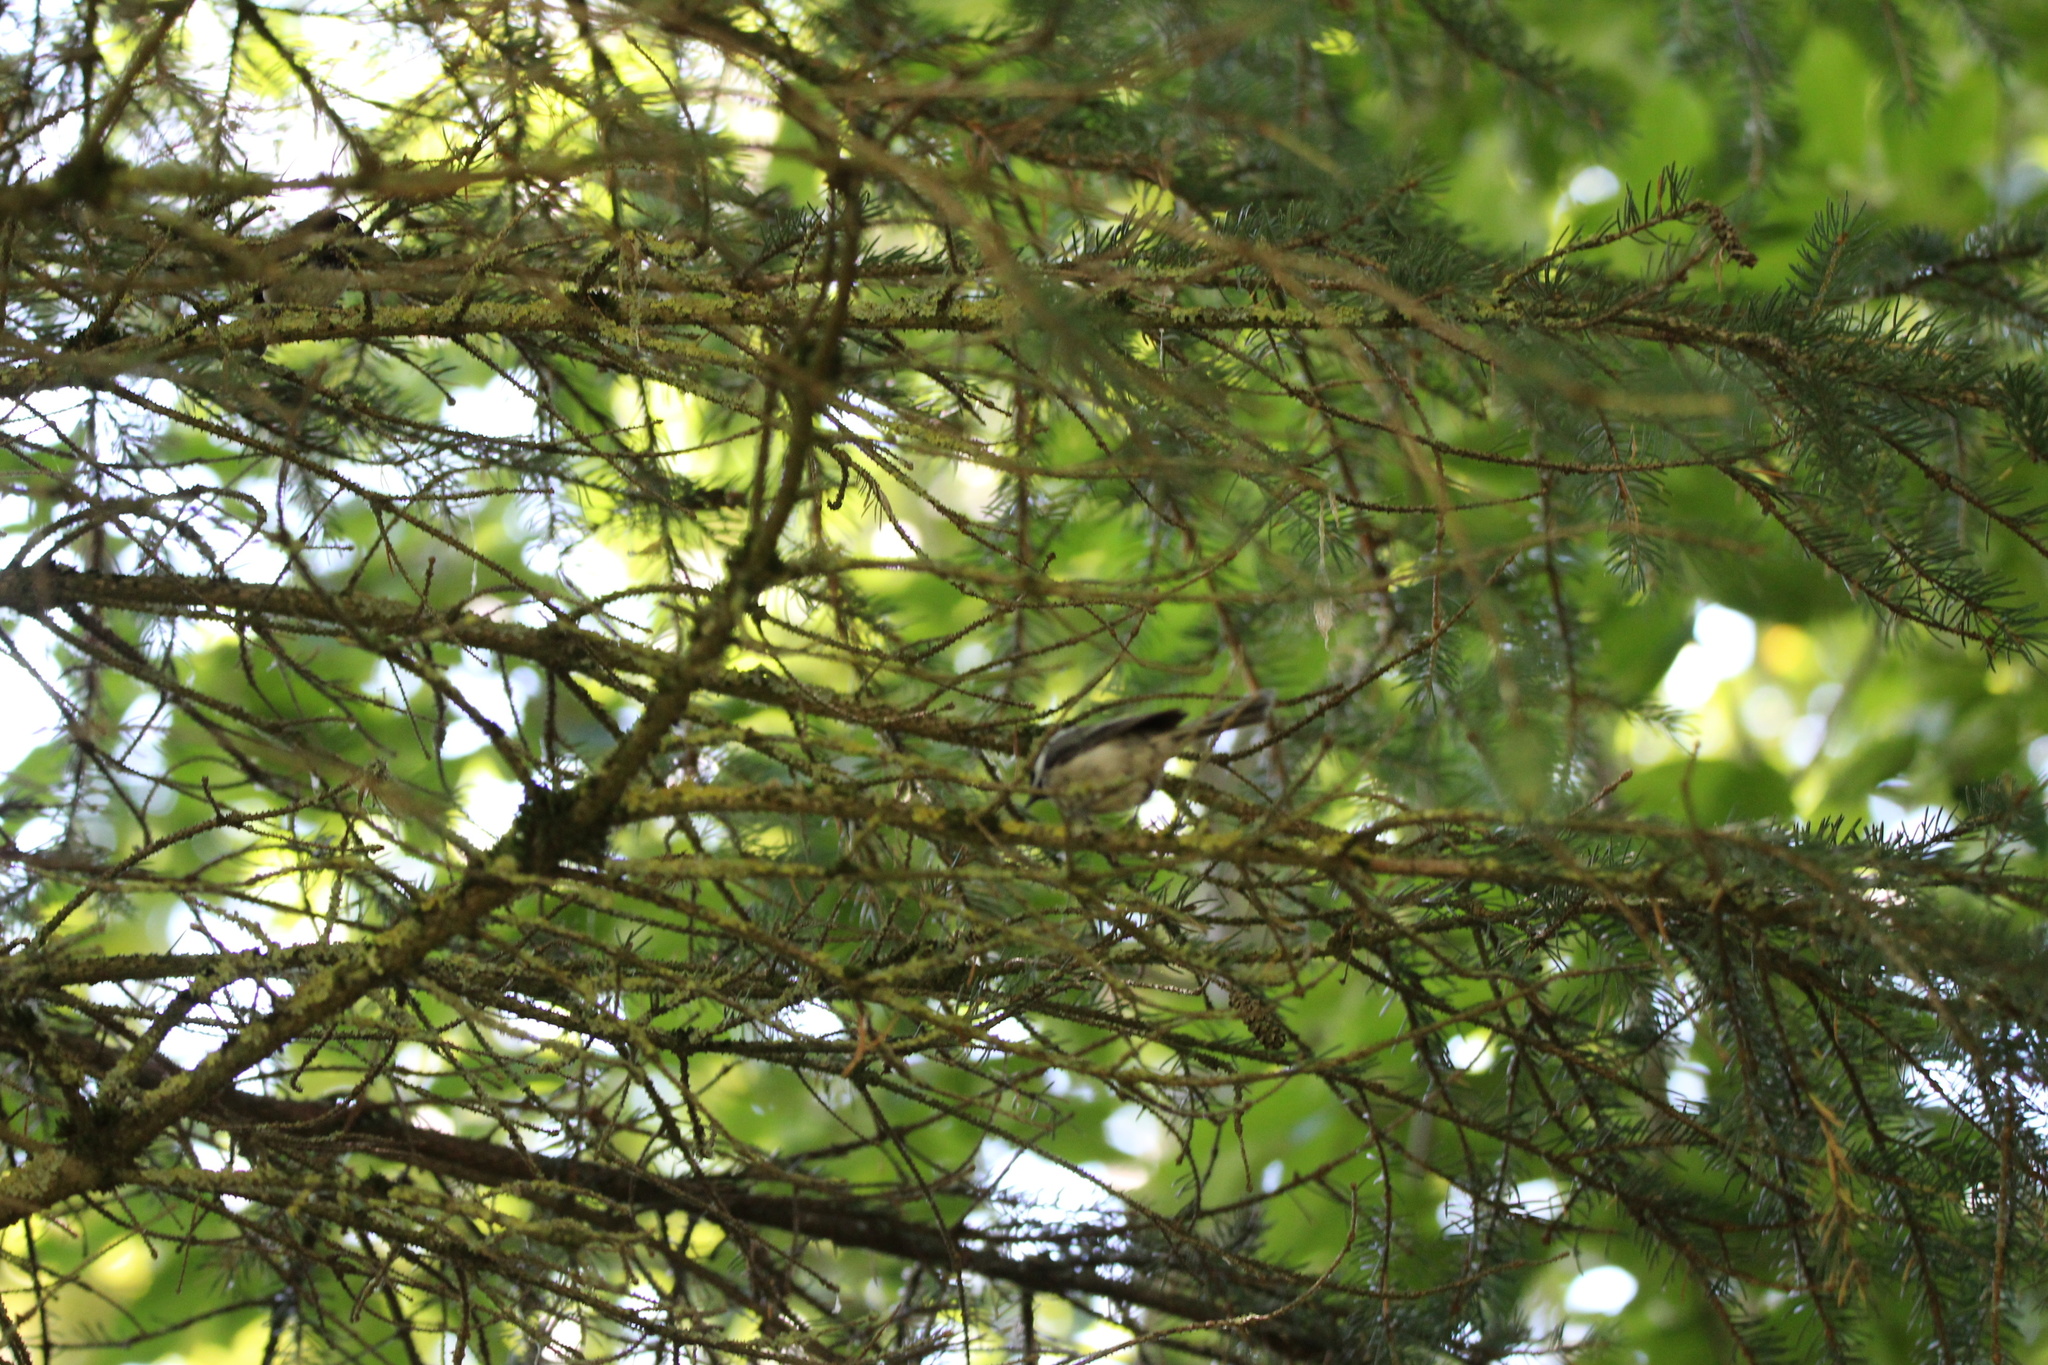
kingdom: Animalia
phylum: Chordata
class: Aves
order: Passeriformes
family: Paridae
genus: Poecile
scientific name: Poecile atricapillus
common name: Black-capped chickadee
